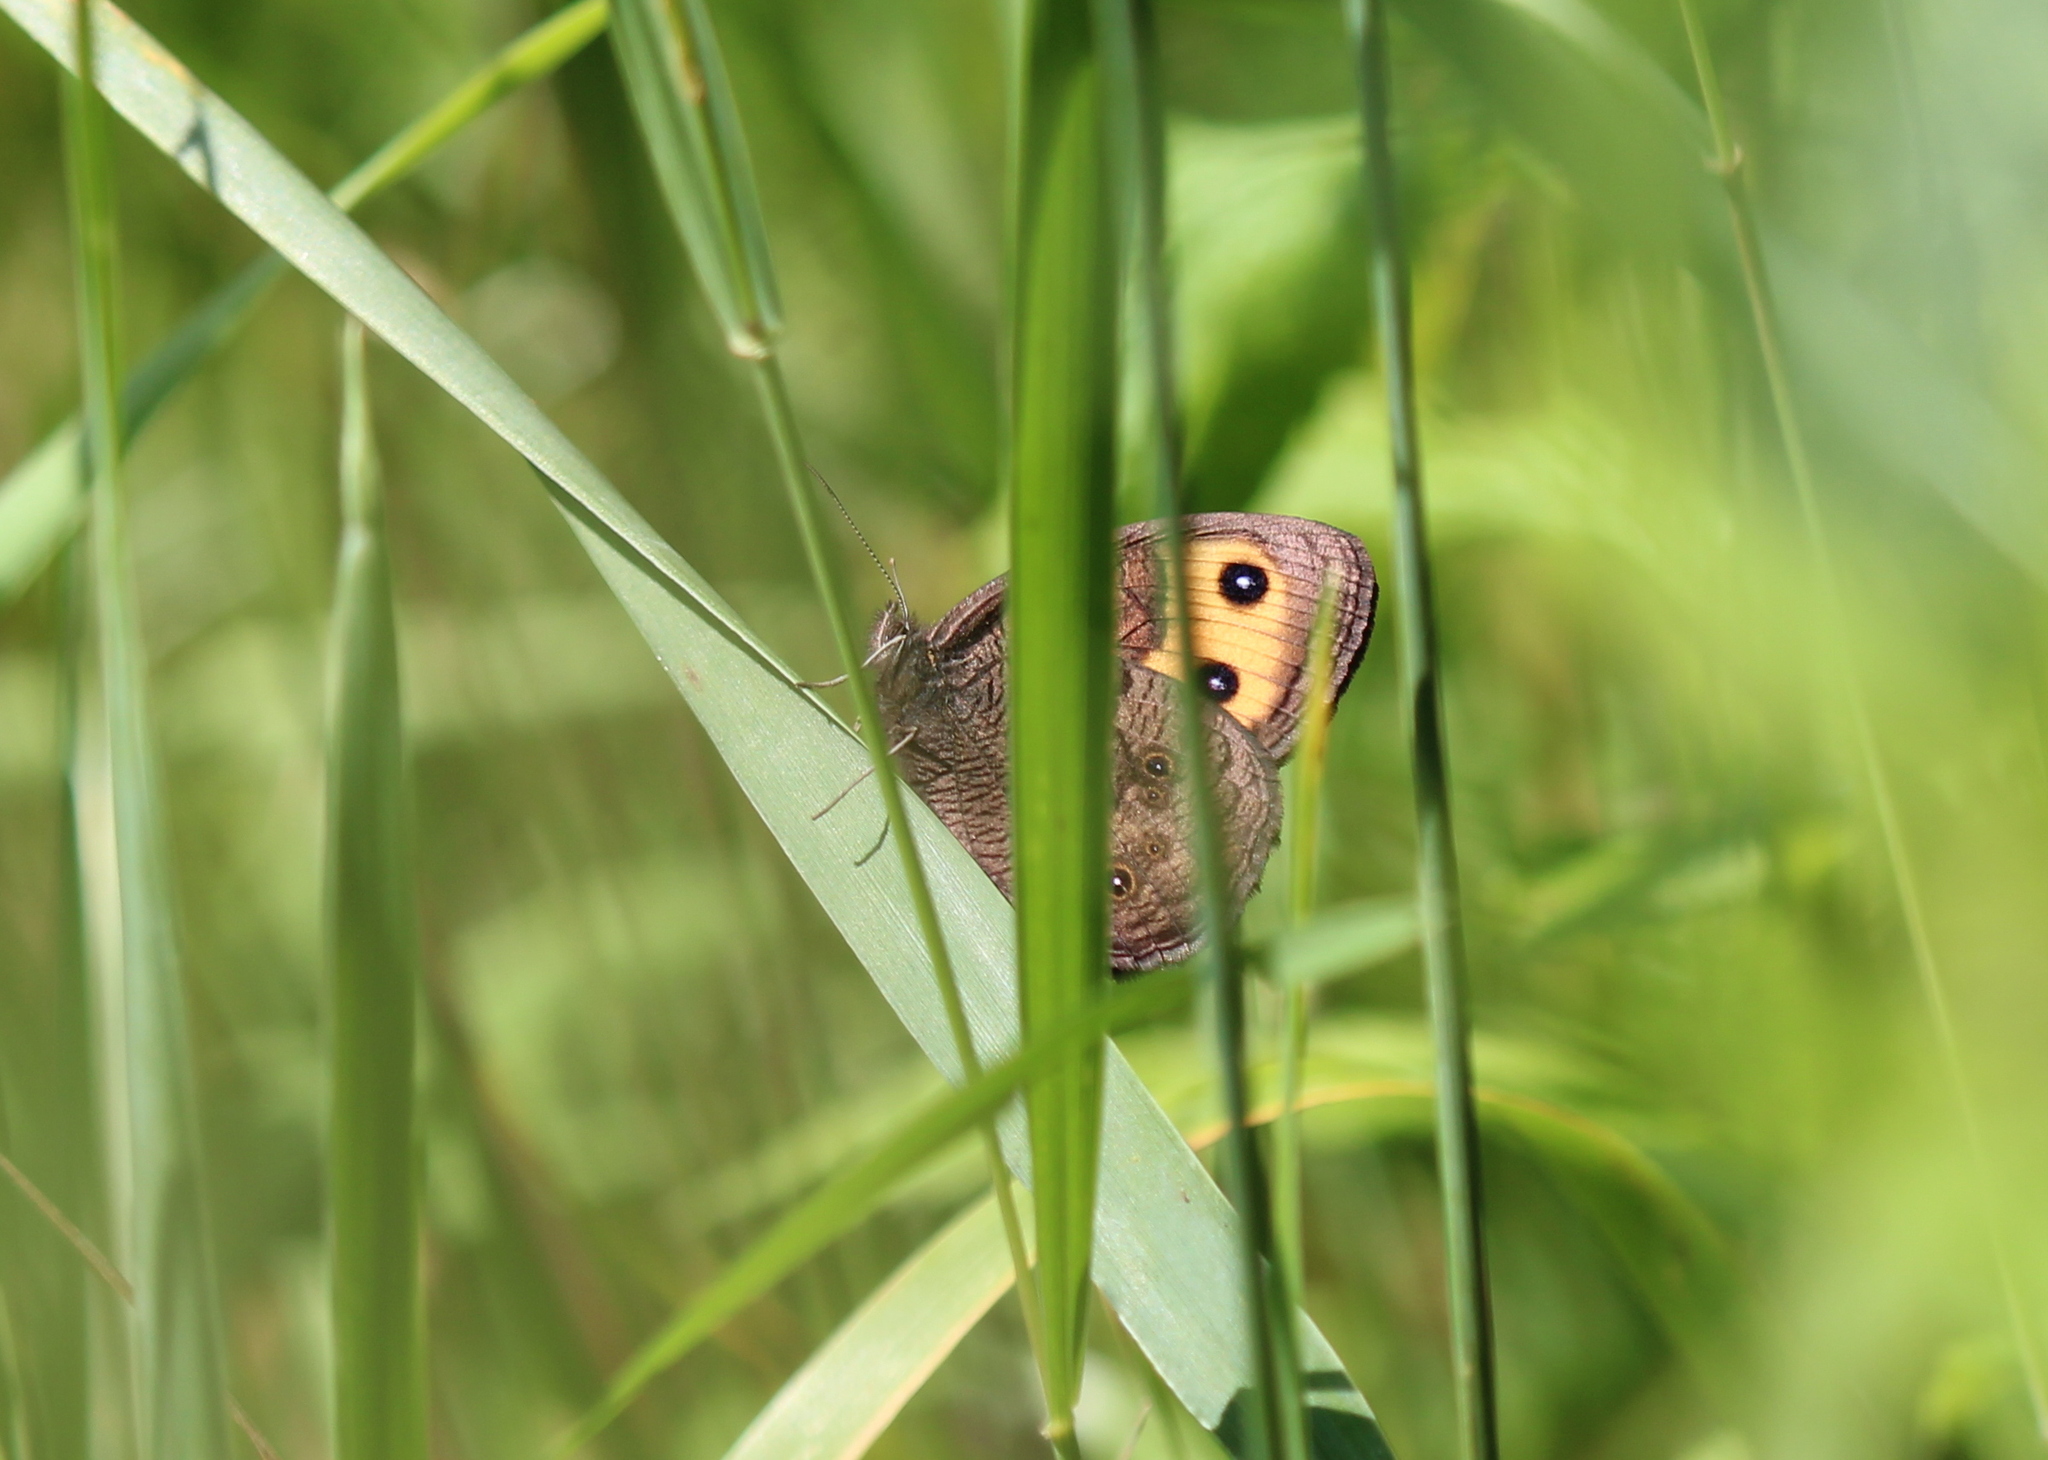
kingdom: Animalia
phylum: Arthropoda
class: Insecta
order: Lepidoptera
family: Nymphalidae
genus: Cercyonis
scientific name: Cercyonis pegala
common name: Common wood-nymph
